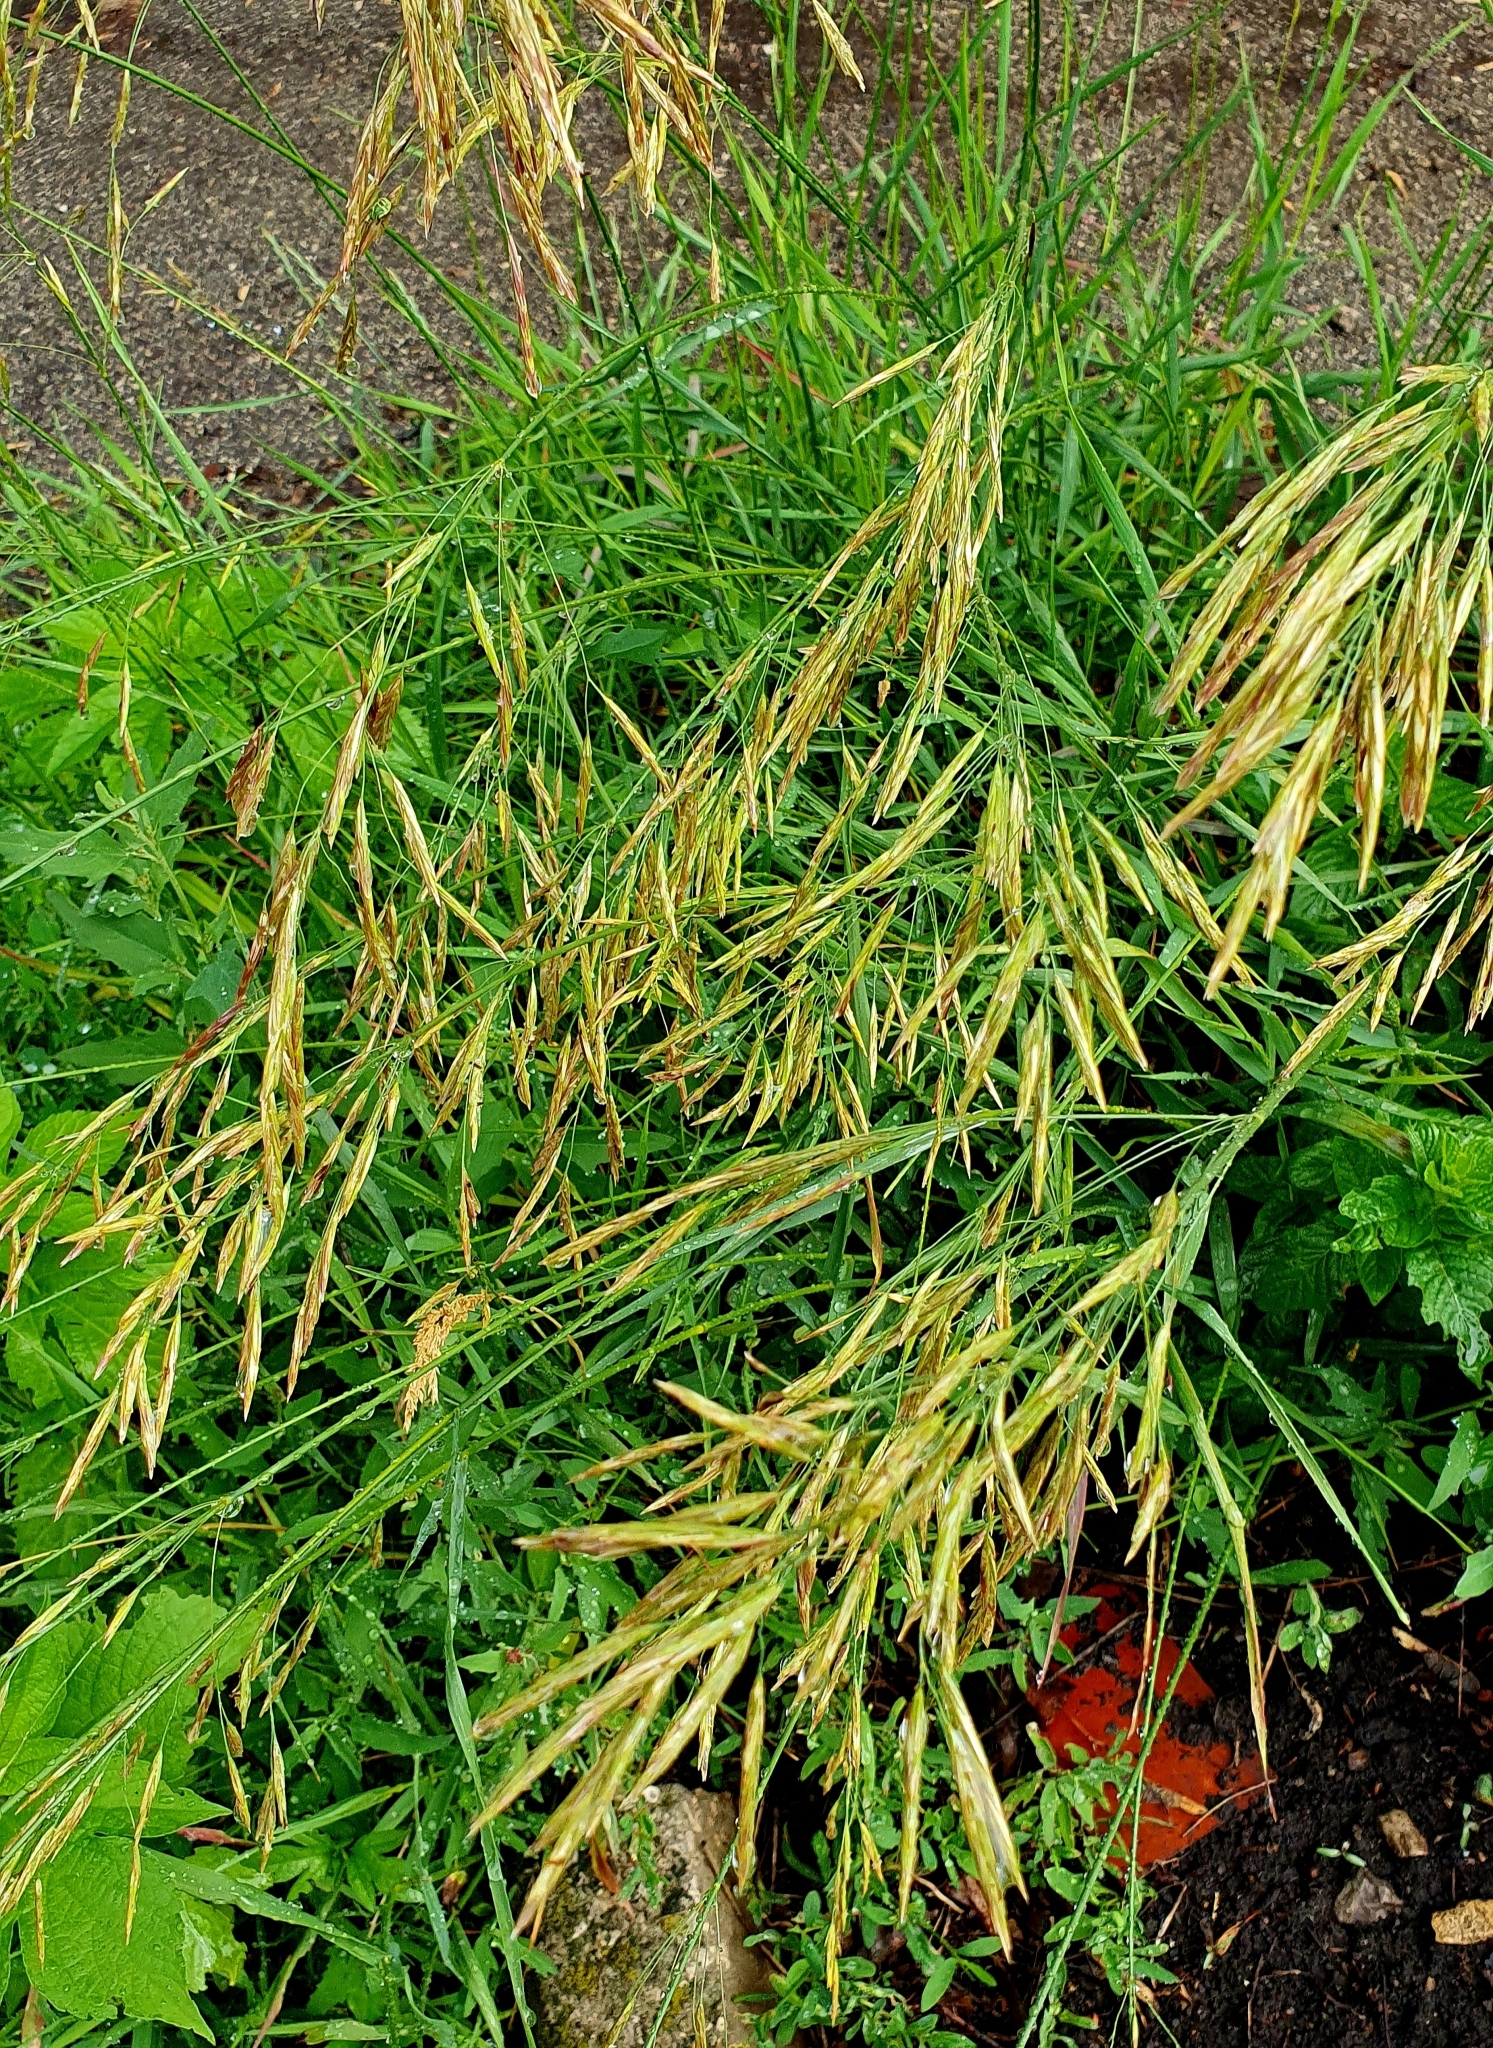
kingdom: Plantae
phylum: Tracheophyta
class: Liliopsida
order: Poales
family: Poaceae
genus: Bromus
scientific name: Bromus inermis
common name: Smooth brome
